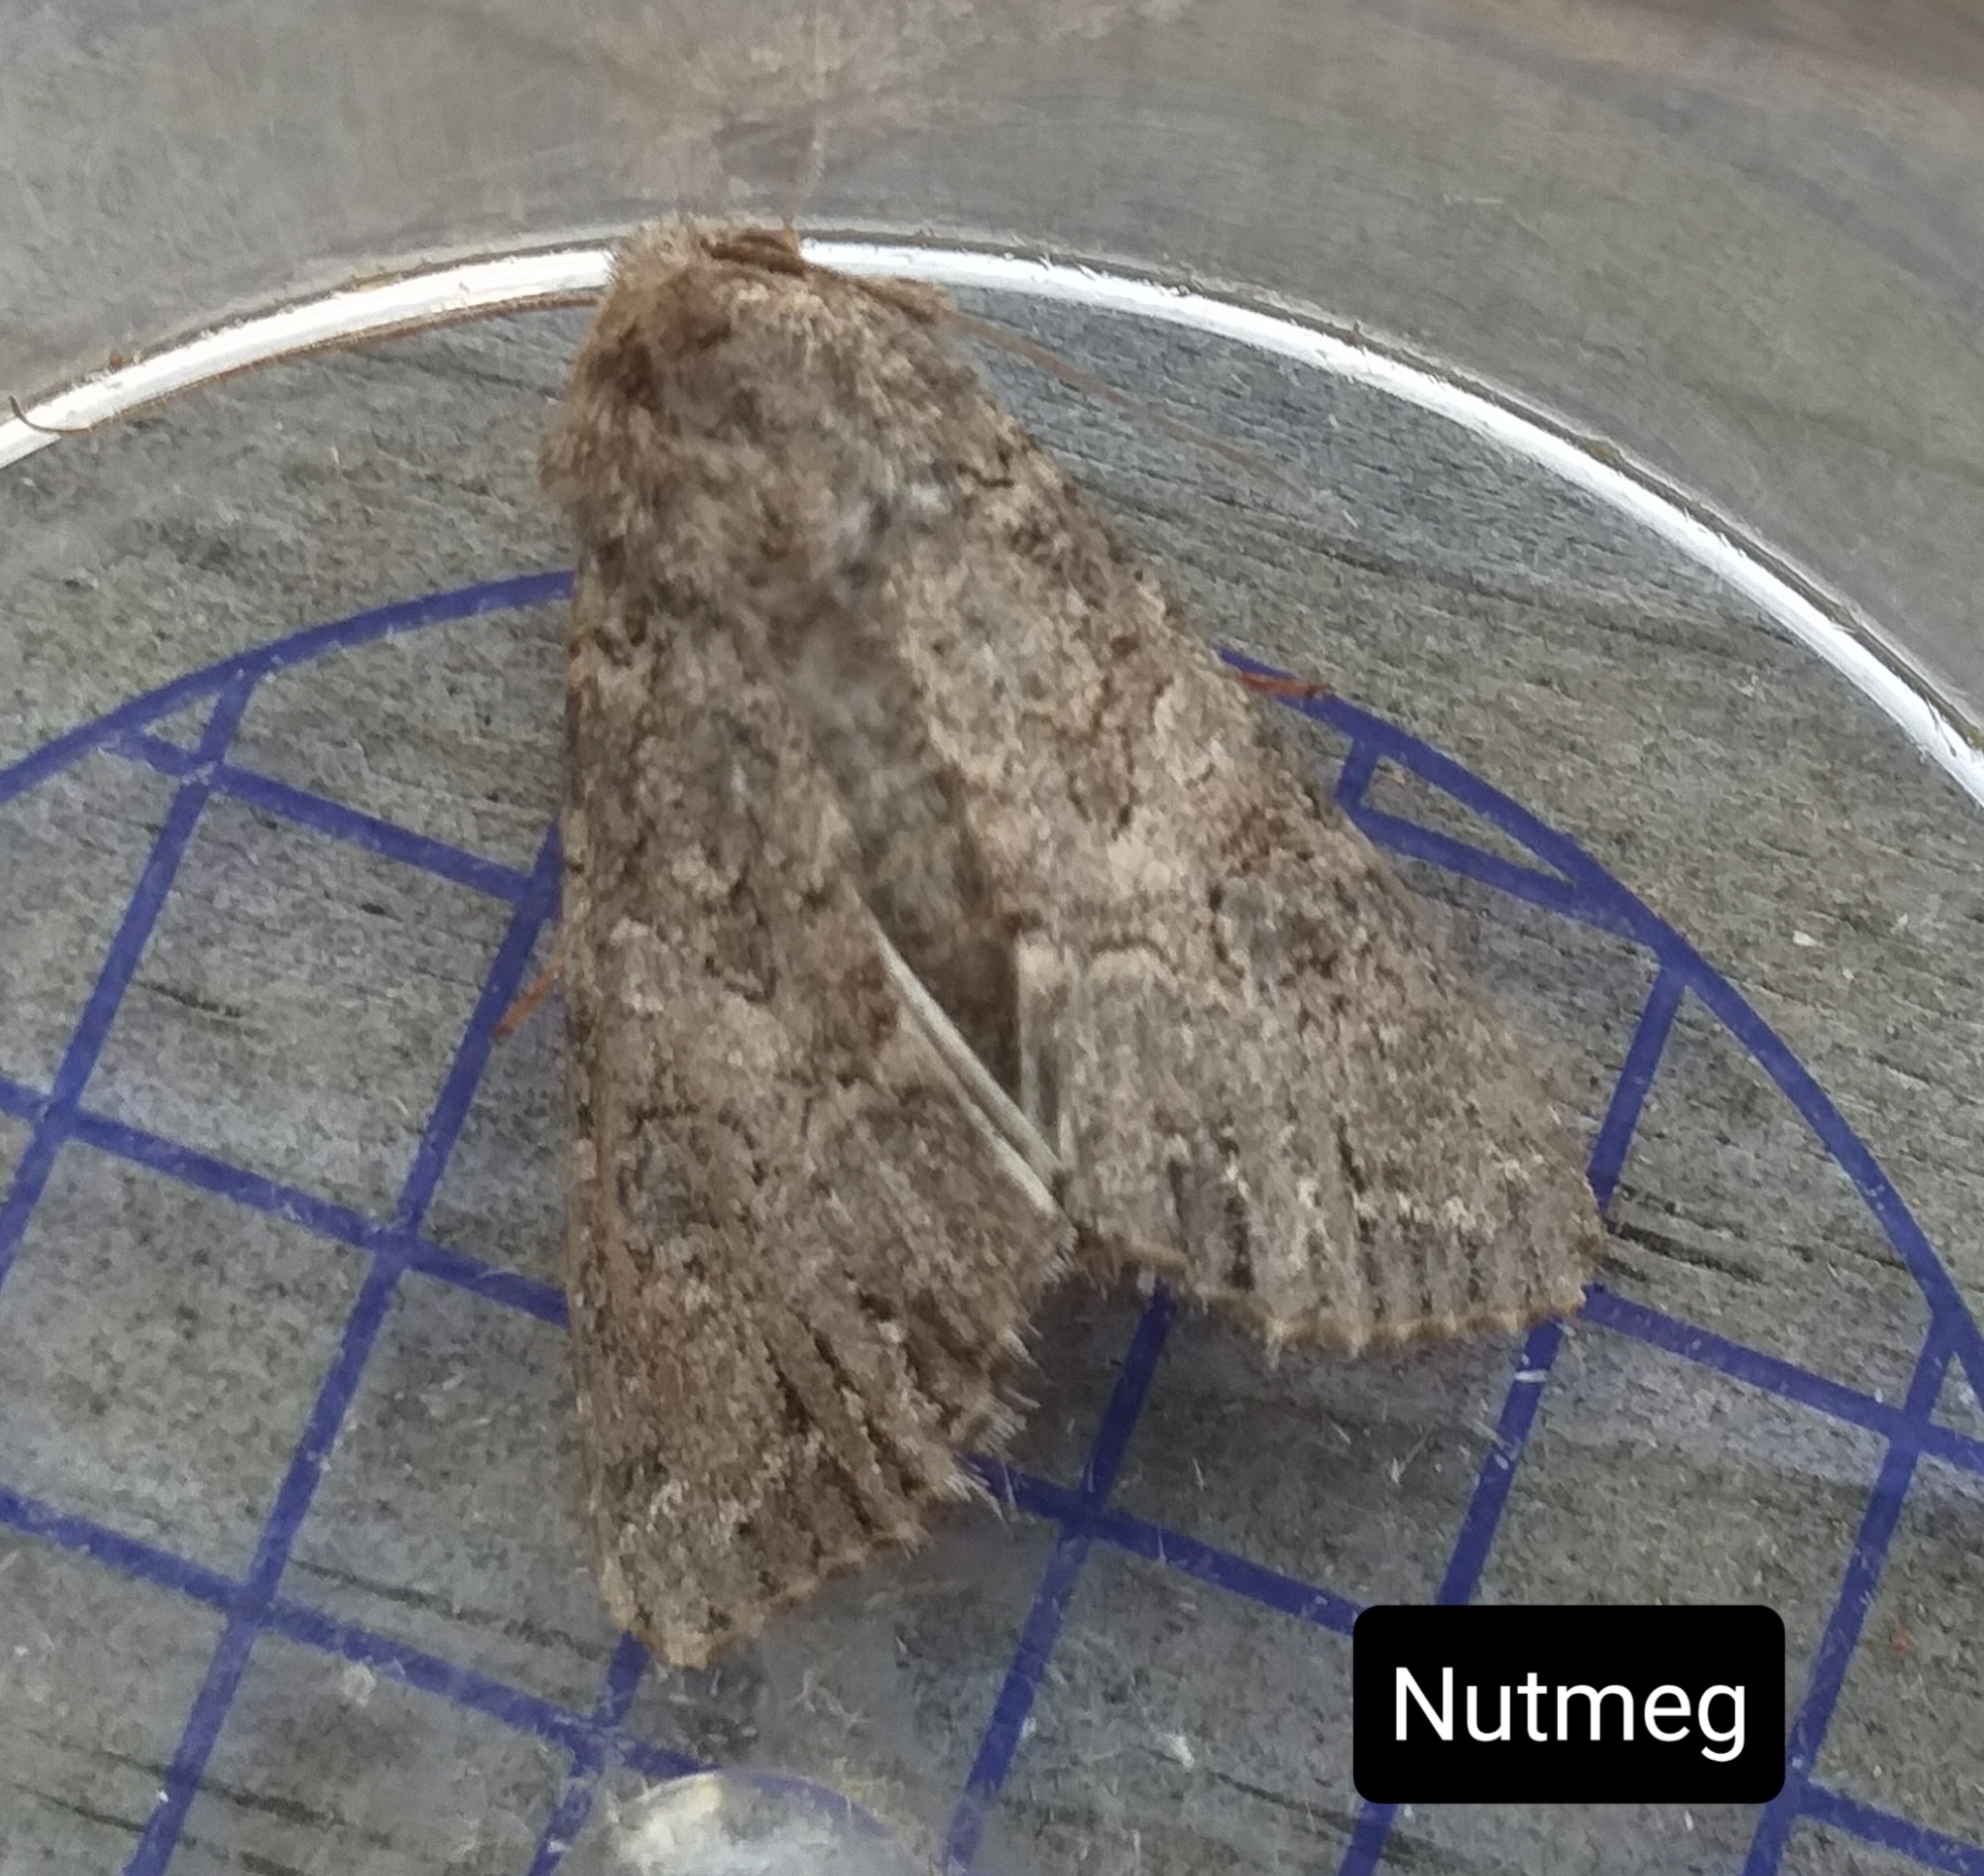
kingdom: Animalia
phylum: Arthropoda
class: Insecta
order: Lepidoptera
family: Noctuidae
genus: Anarta
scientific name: Anarta trifolii
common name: Clover cutworm moth
